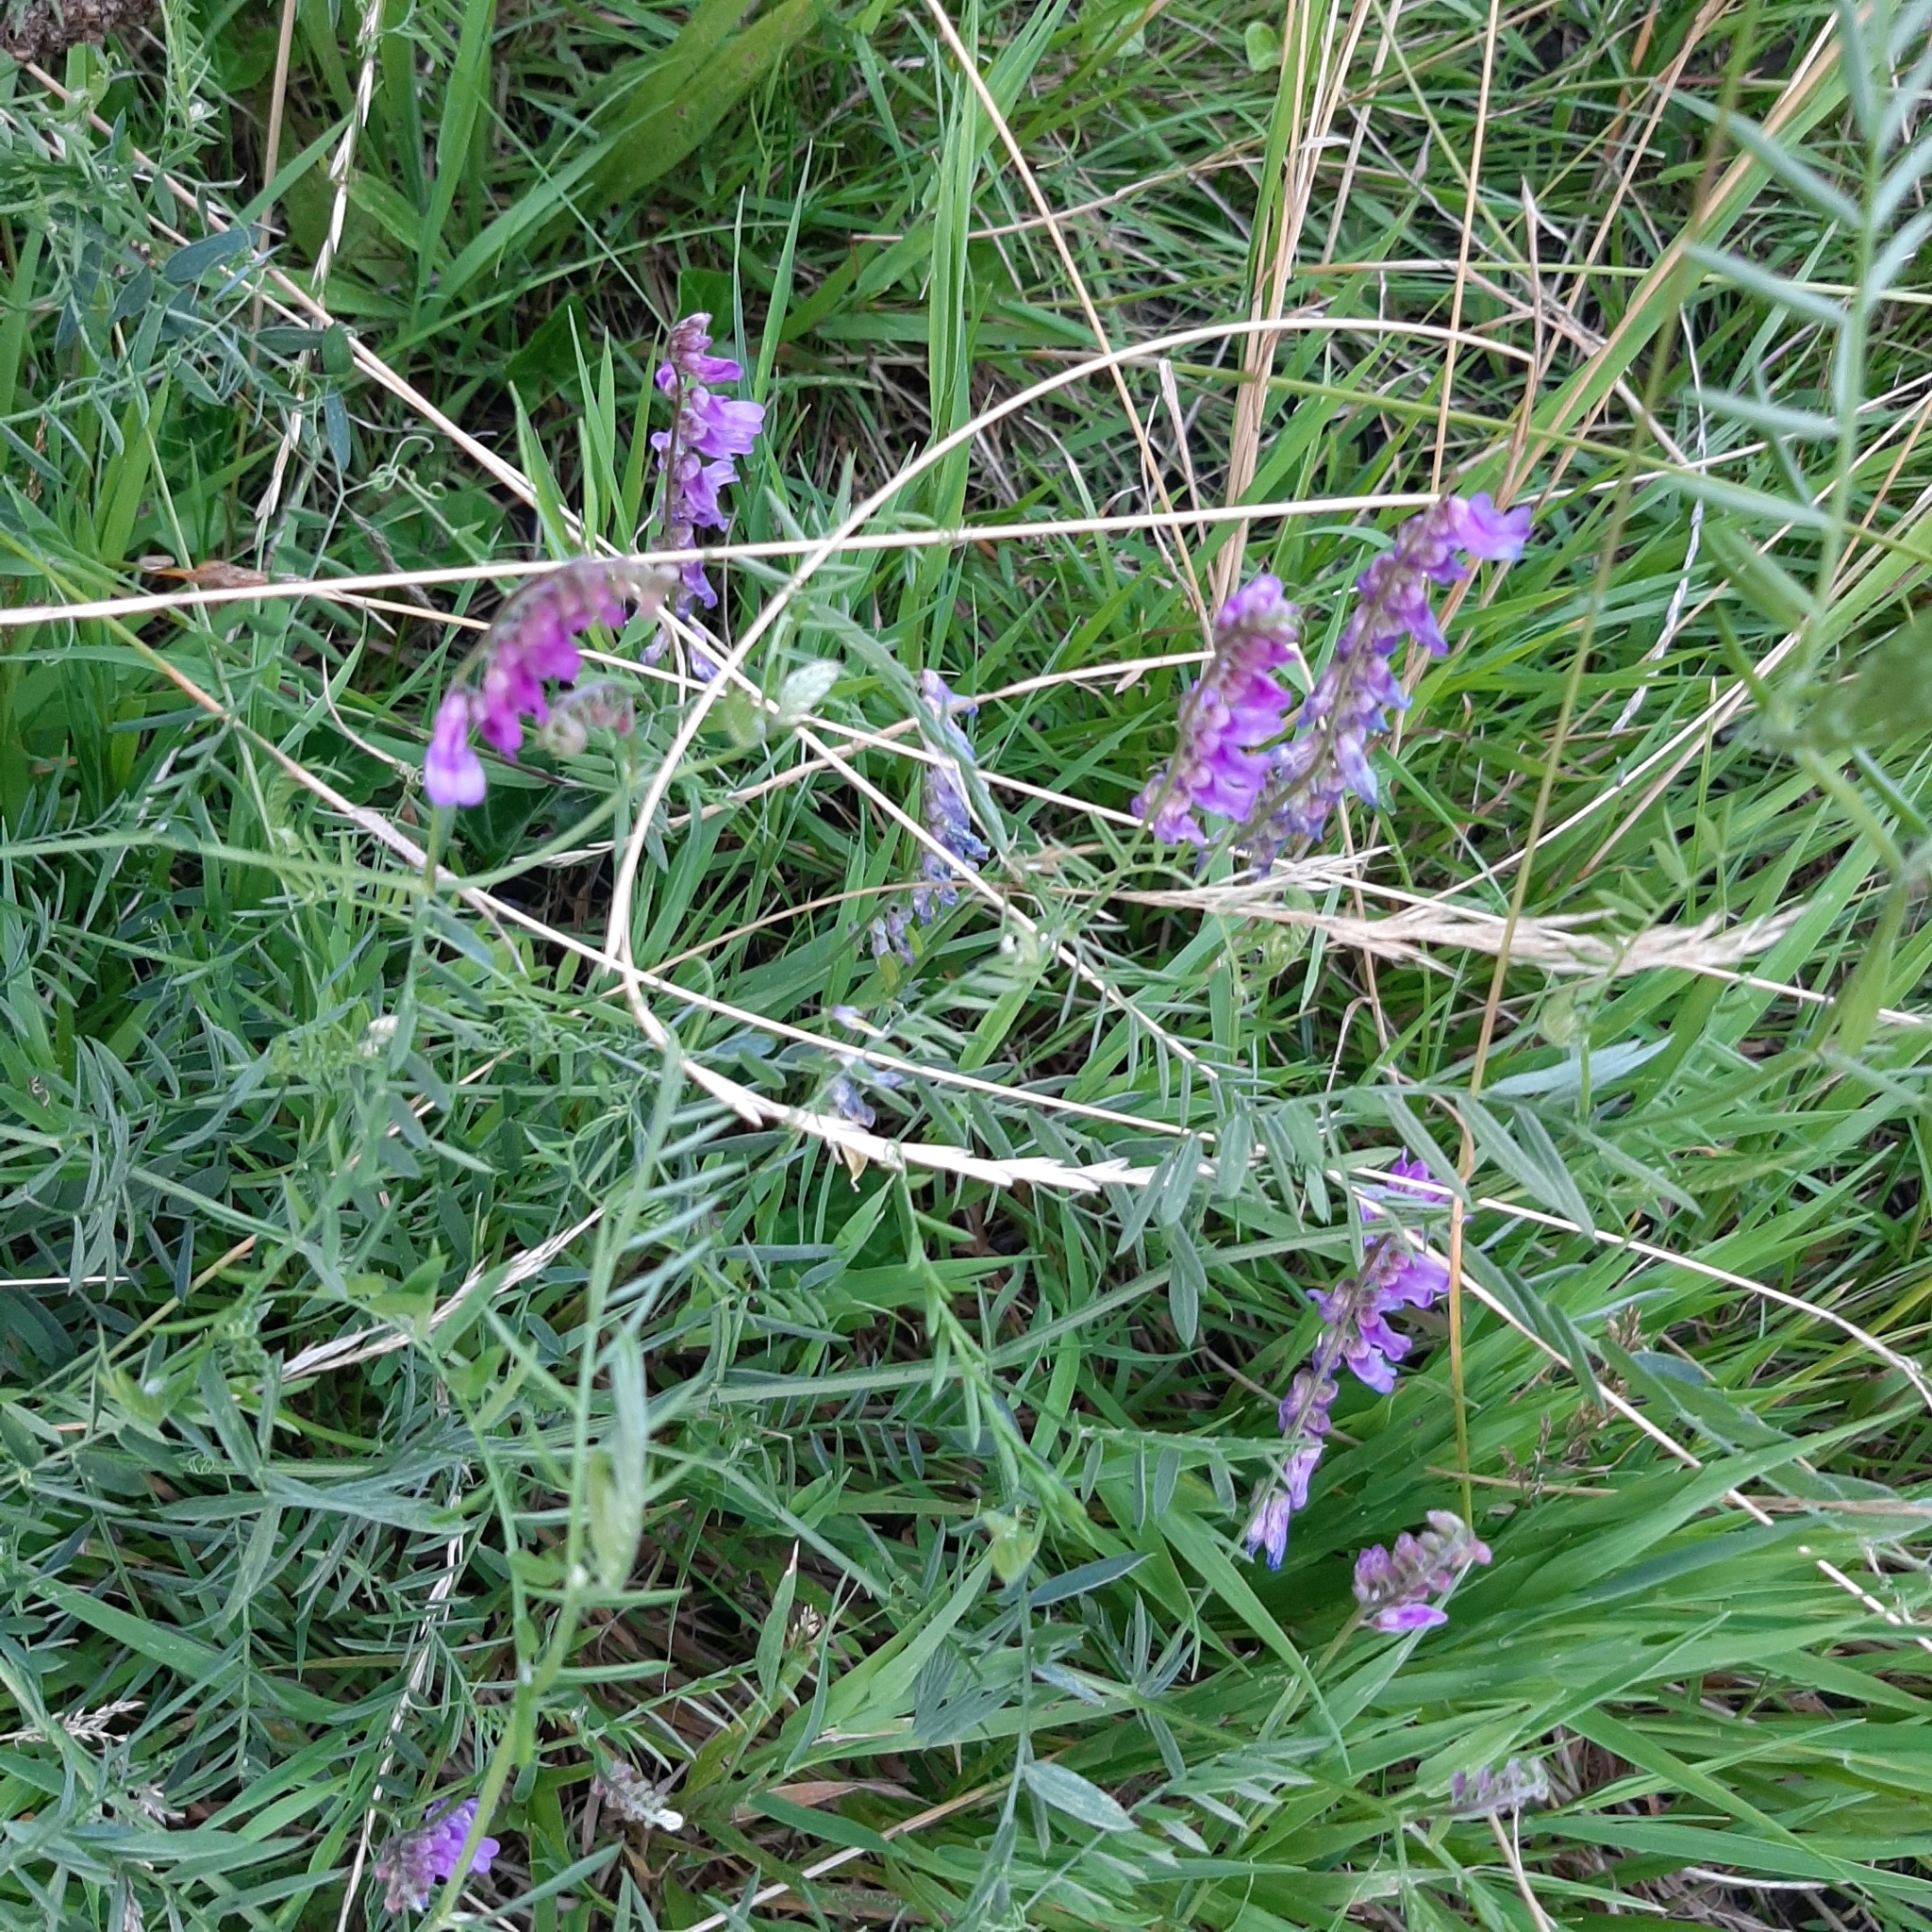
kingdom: Plantae
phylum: Tracheophyta
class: Magnoliopsida
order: Fabales
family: Fabaceae
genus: Vicia
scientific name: Vicia cracca
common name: Bird vetch
